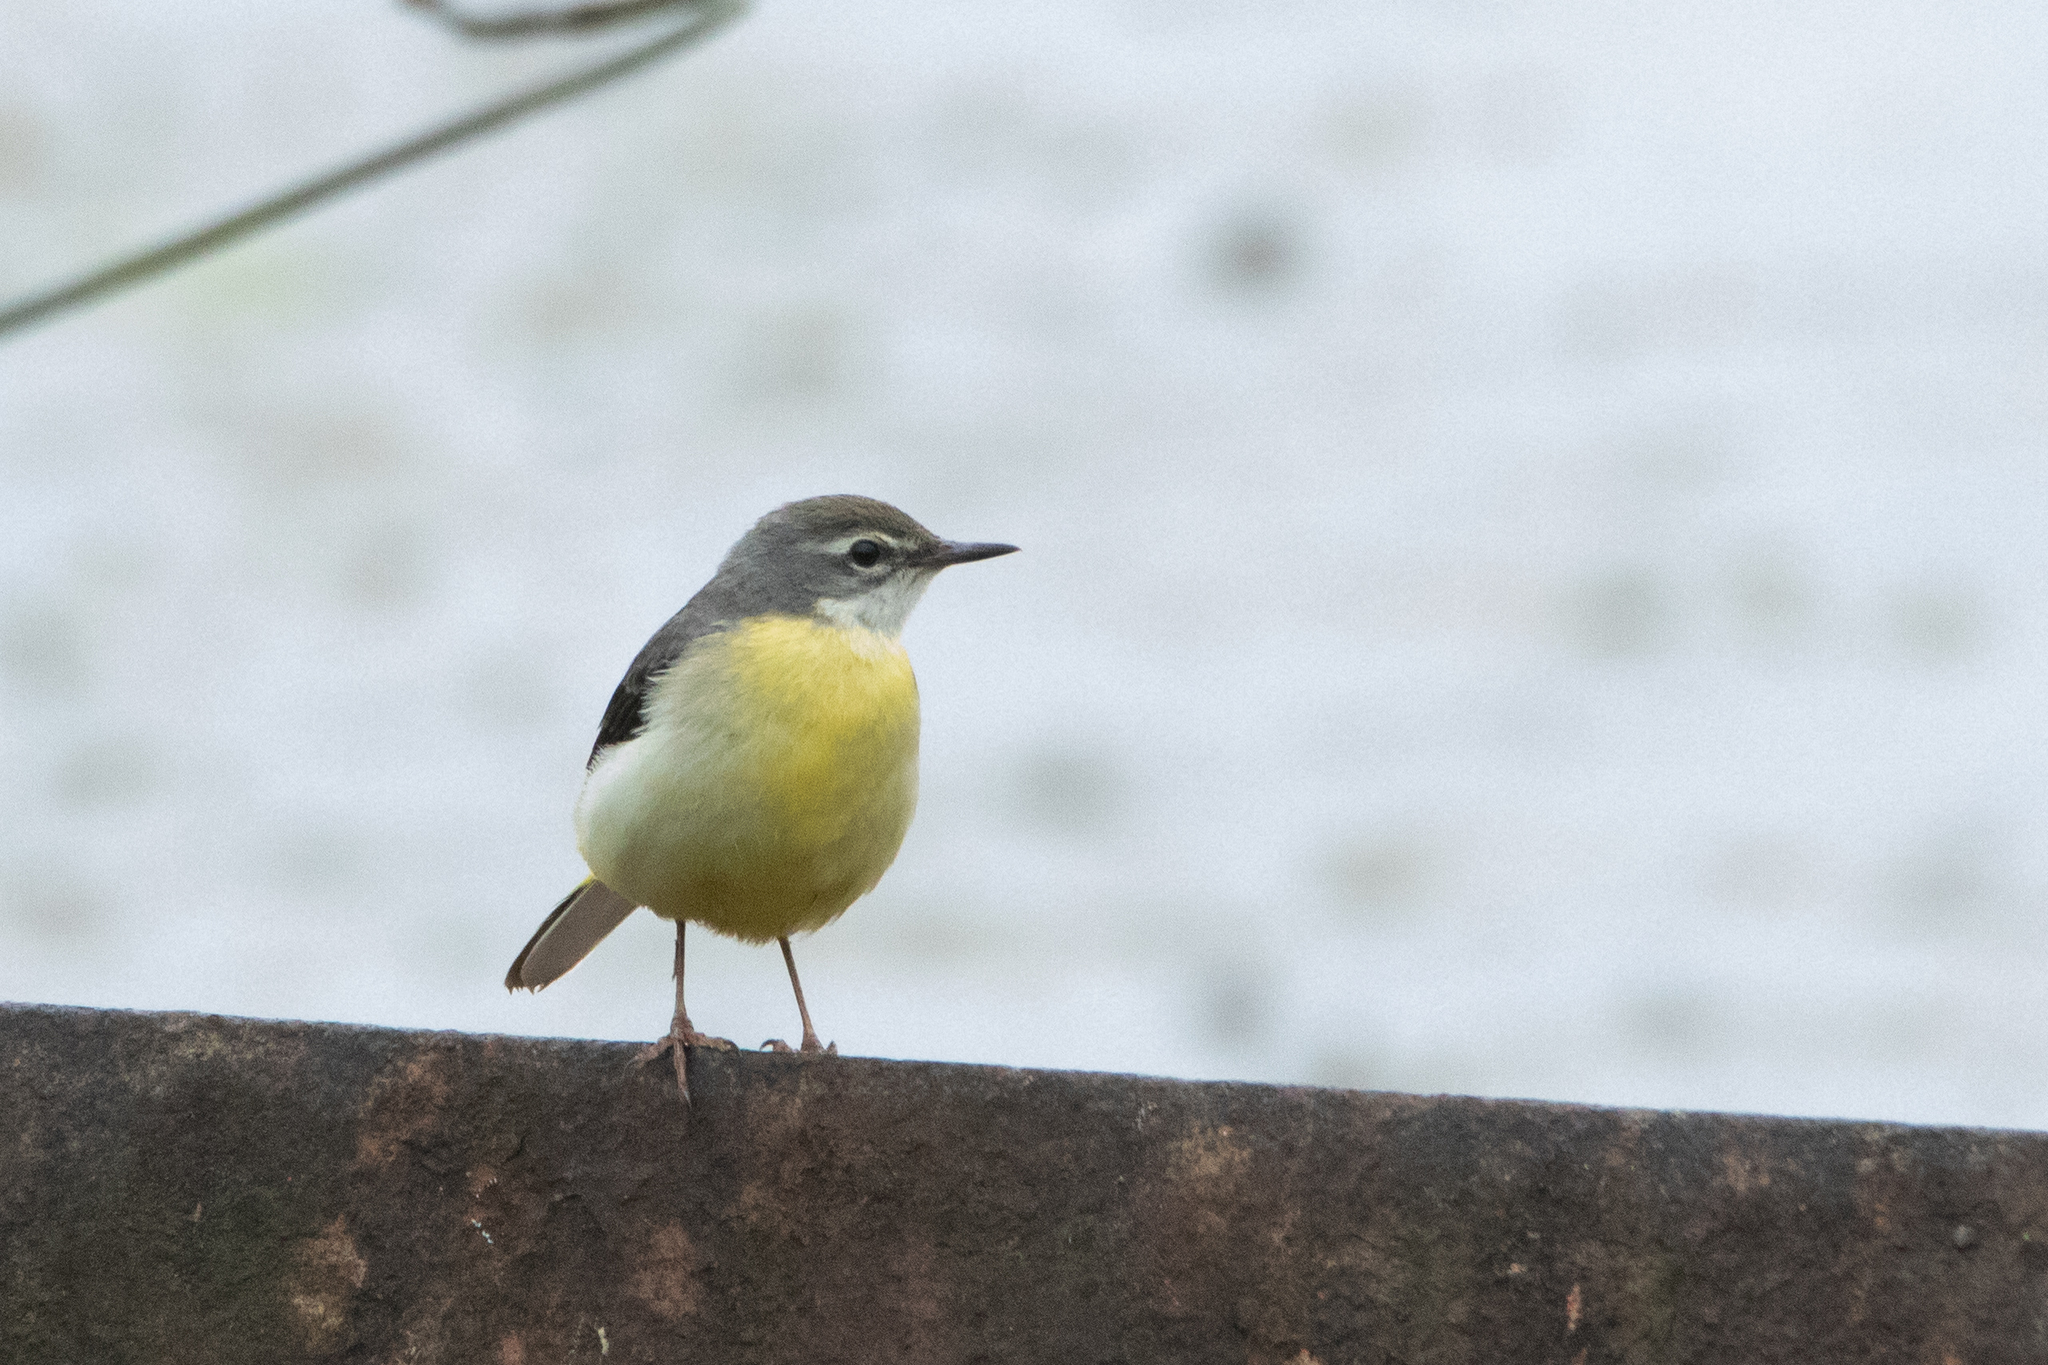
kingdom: Animalia
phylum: Chordata
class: Aves
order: Passeriformes
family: Motacillidae
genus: Motacilla
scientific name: Motacilla cinerea
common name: Grey wagtail
